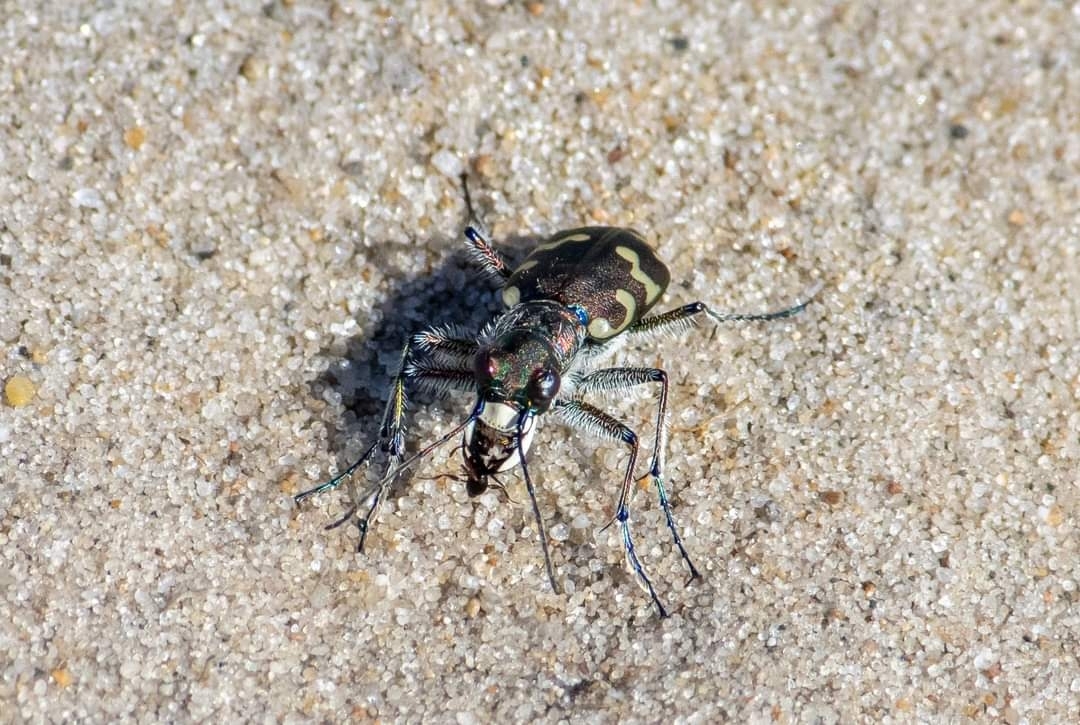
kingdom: Animalia
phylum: Arthropoda
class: Insecta
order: Coleoptera
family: Carabidae
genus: Cicindela
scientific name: Cicindela hybrida
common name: Northern dune tiger beetle
